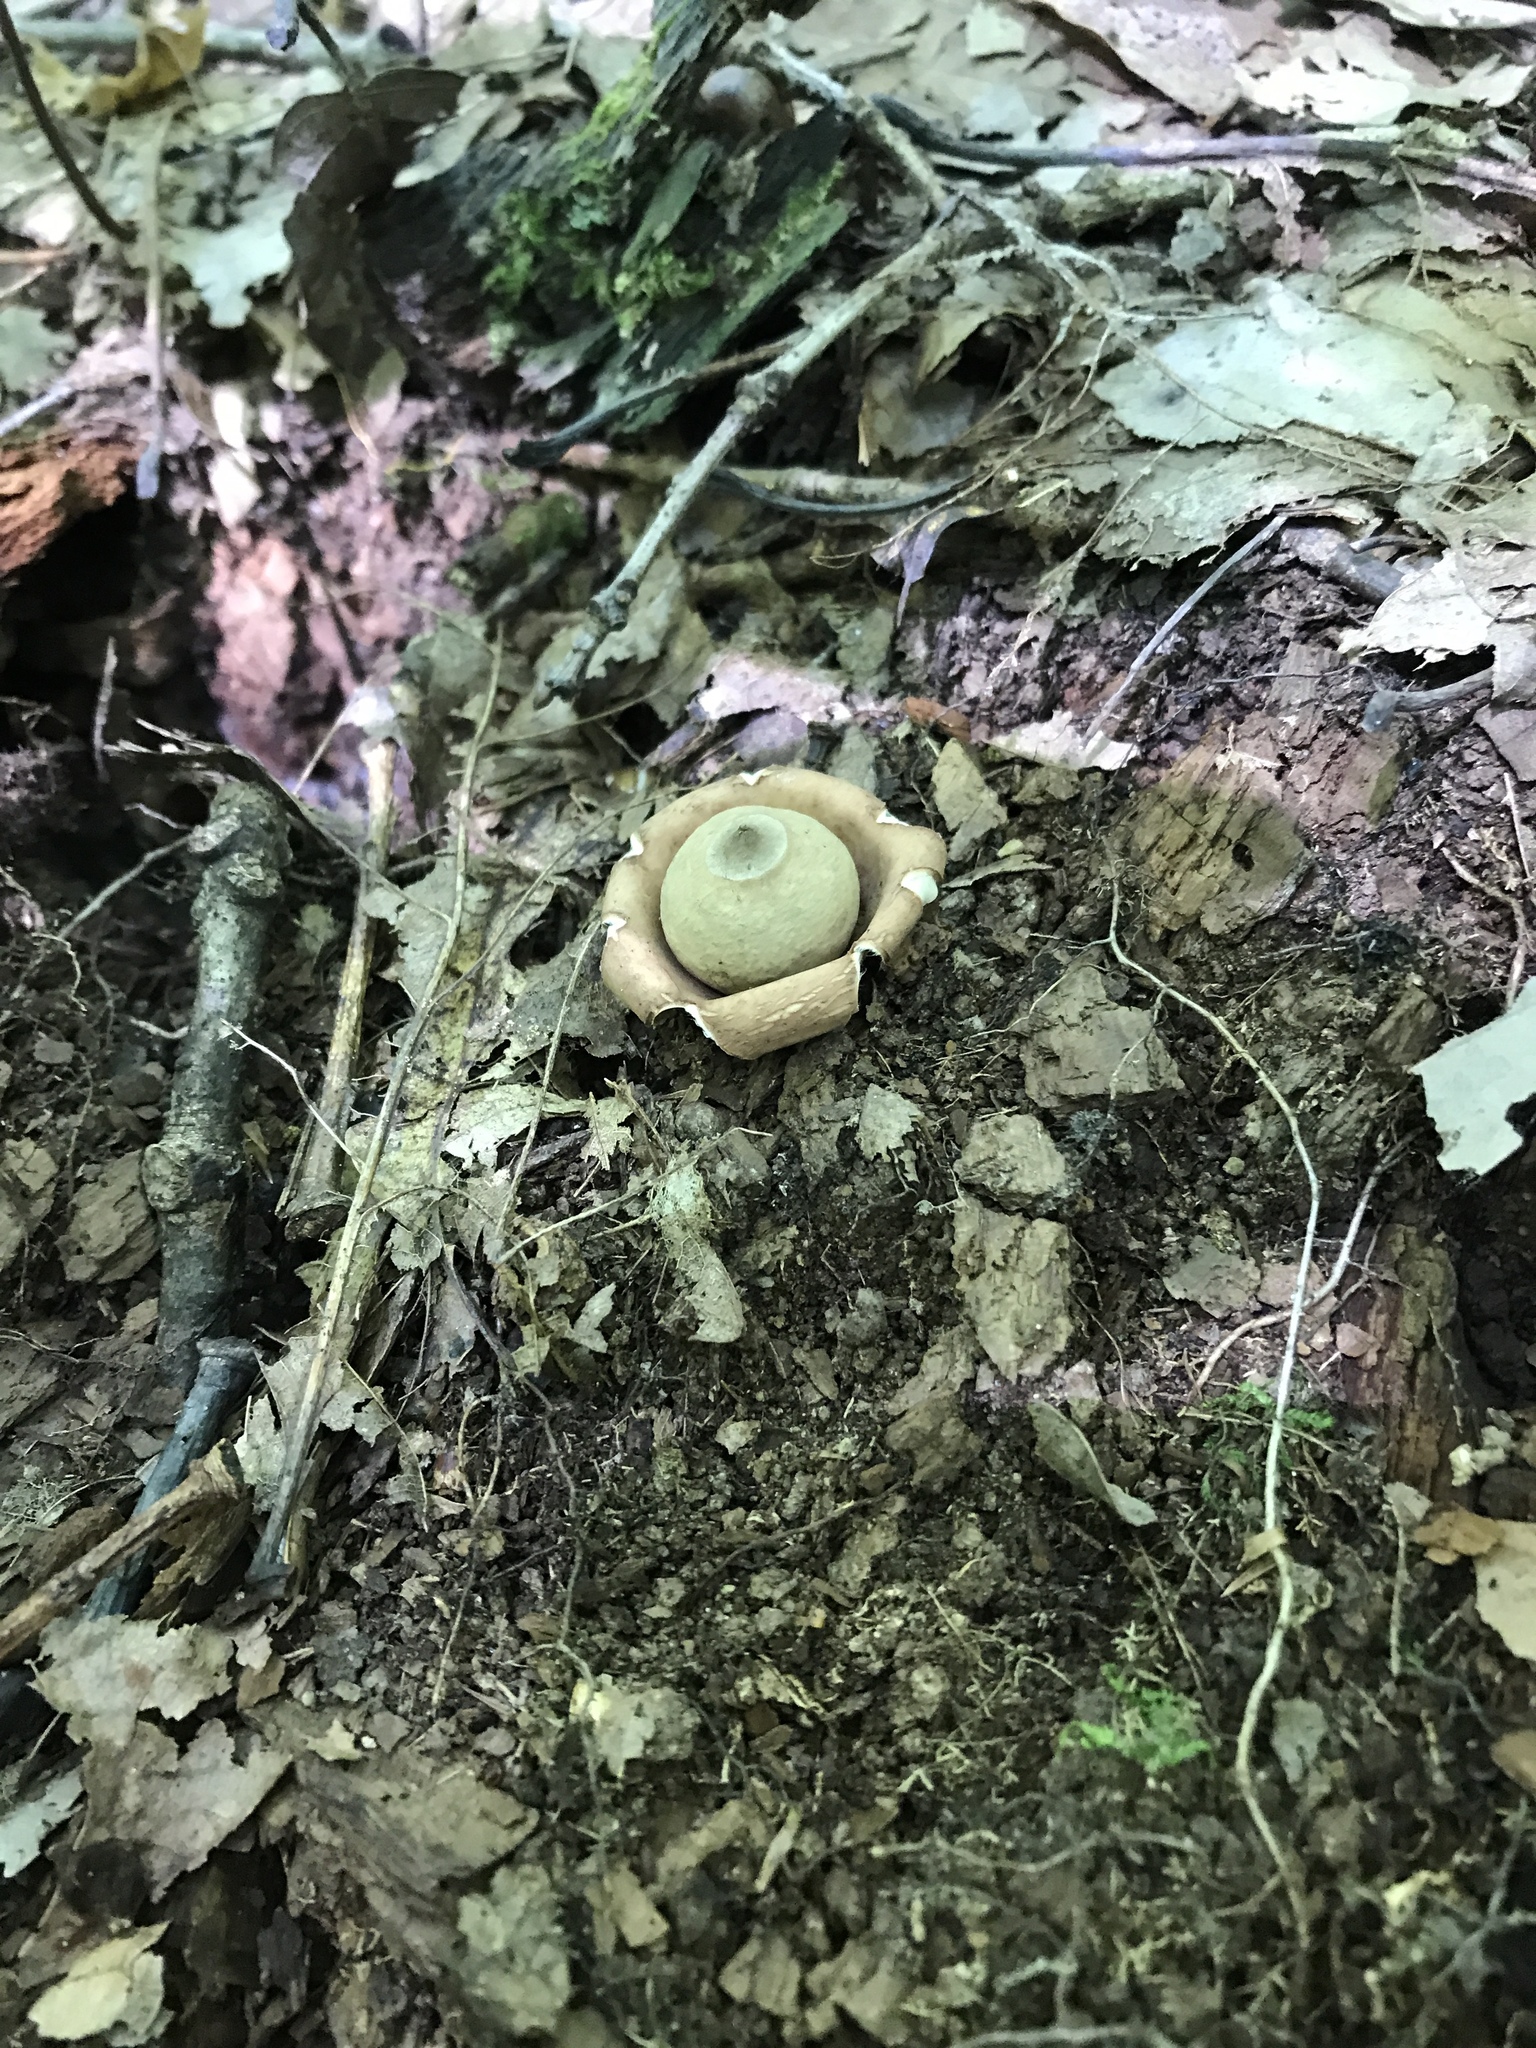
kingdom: Fungi
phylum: Basidiomycota
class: Agaricomycetes
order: Geastrales
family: Geastraceae
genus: Geastrum
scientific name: Geastrum saccatum
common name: Rounded earthstar
